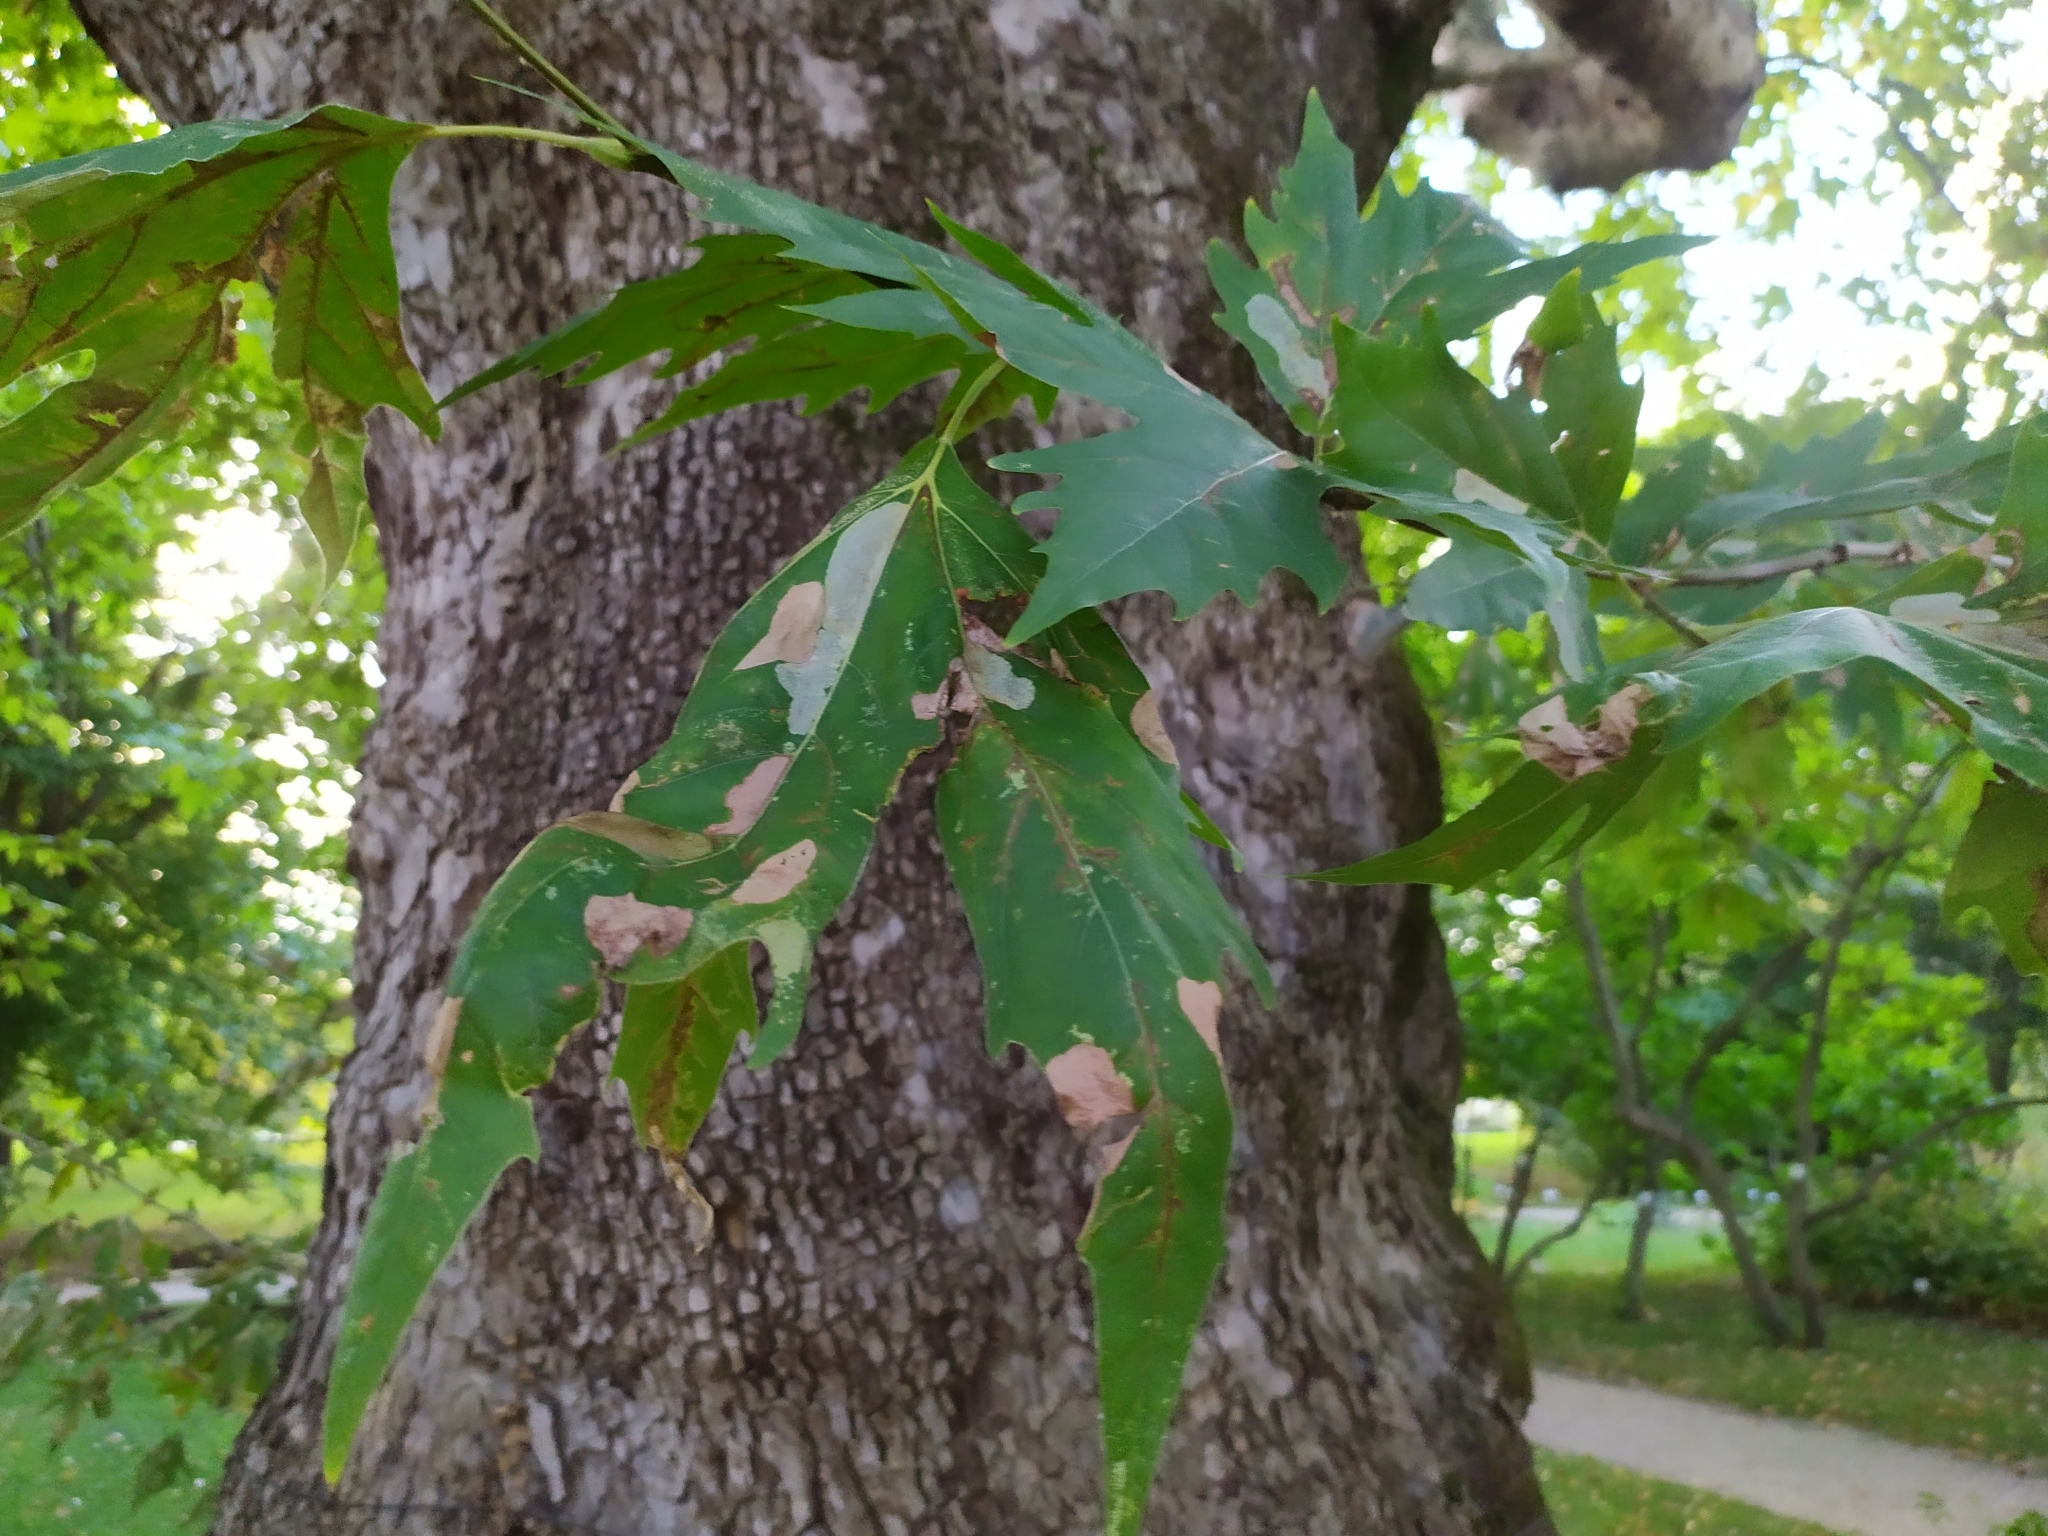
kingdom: Animalia
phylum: Arthropoda
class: Insecta
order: Lepidoptera
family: Gracillariidae
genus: Phyllonorycter
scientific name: Phyllonorycter platani
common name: London midget
